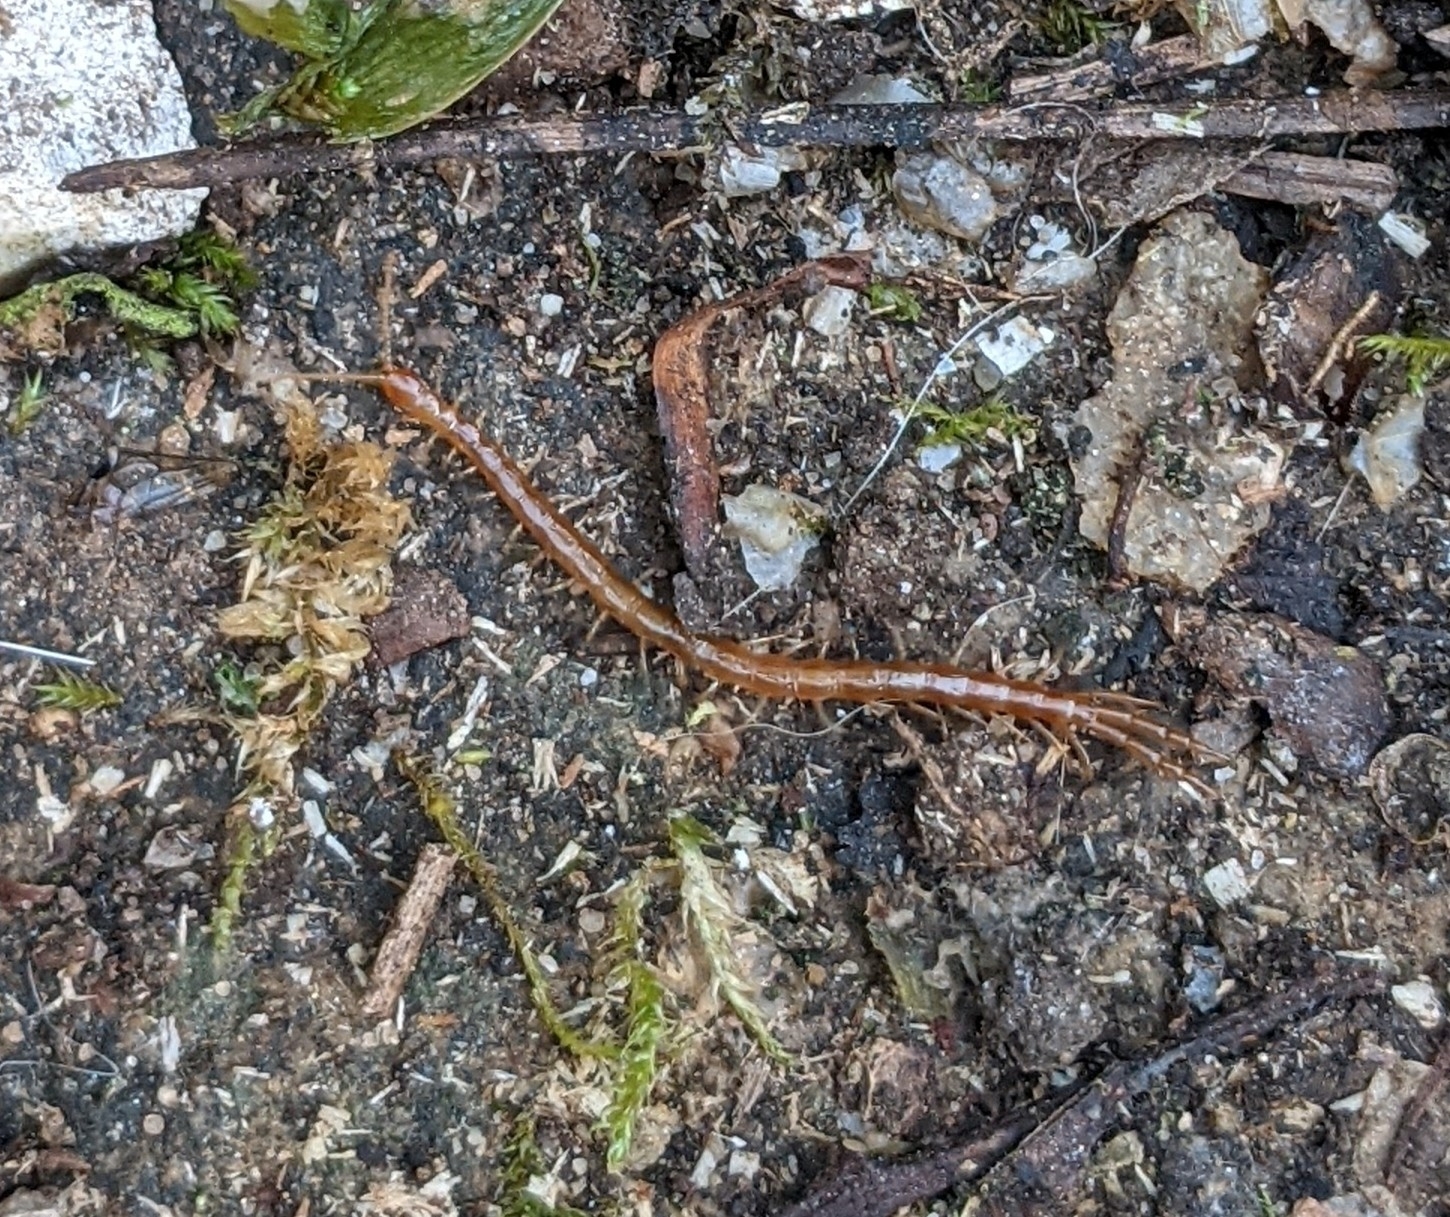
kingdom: Animalia
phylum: Arthropoda
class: Chilopoda
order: Scolopendromorpha
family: Cryptopidae
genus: Cryptops
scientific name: Cryptops
